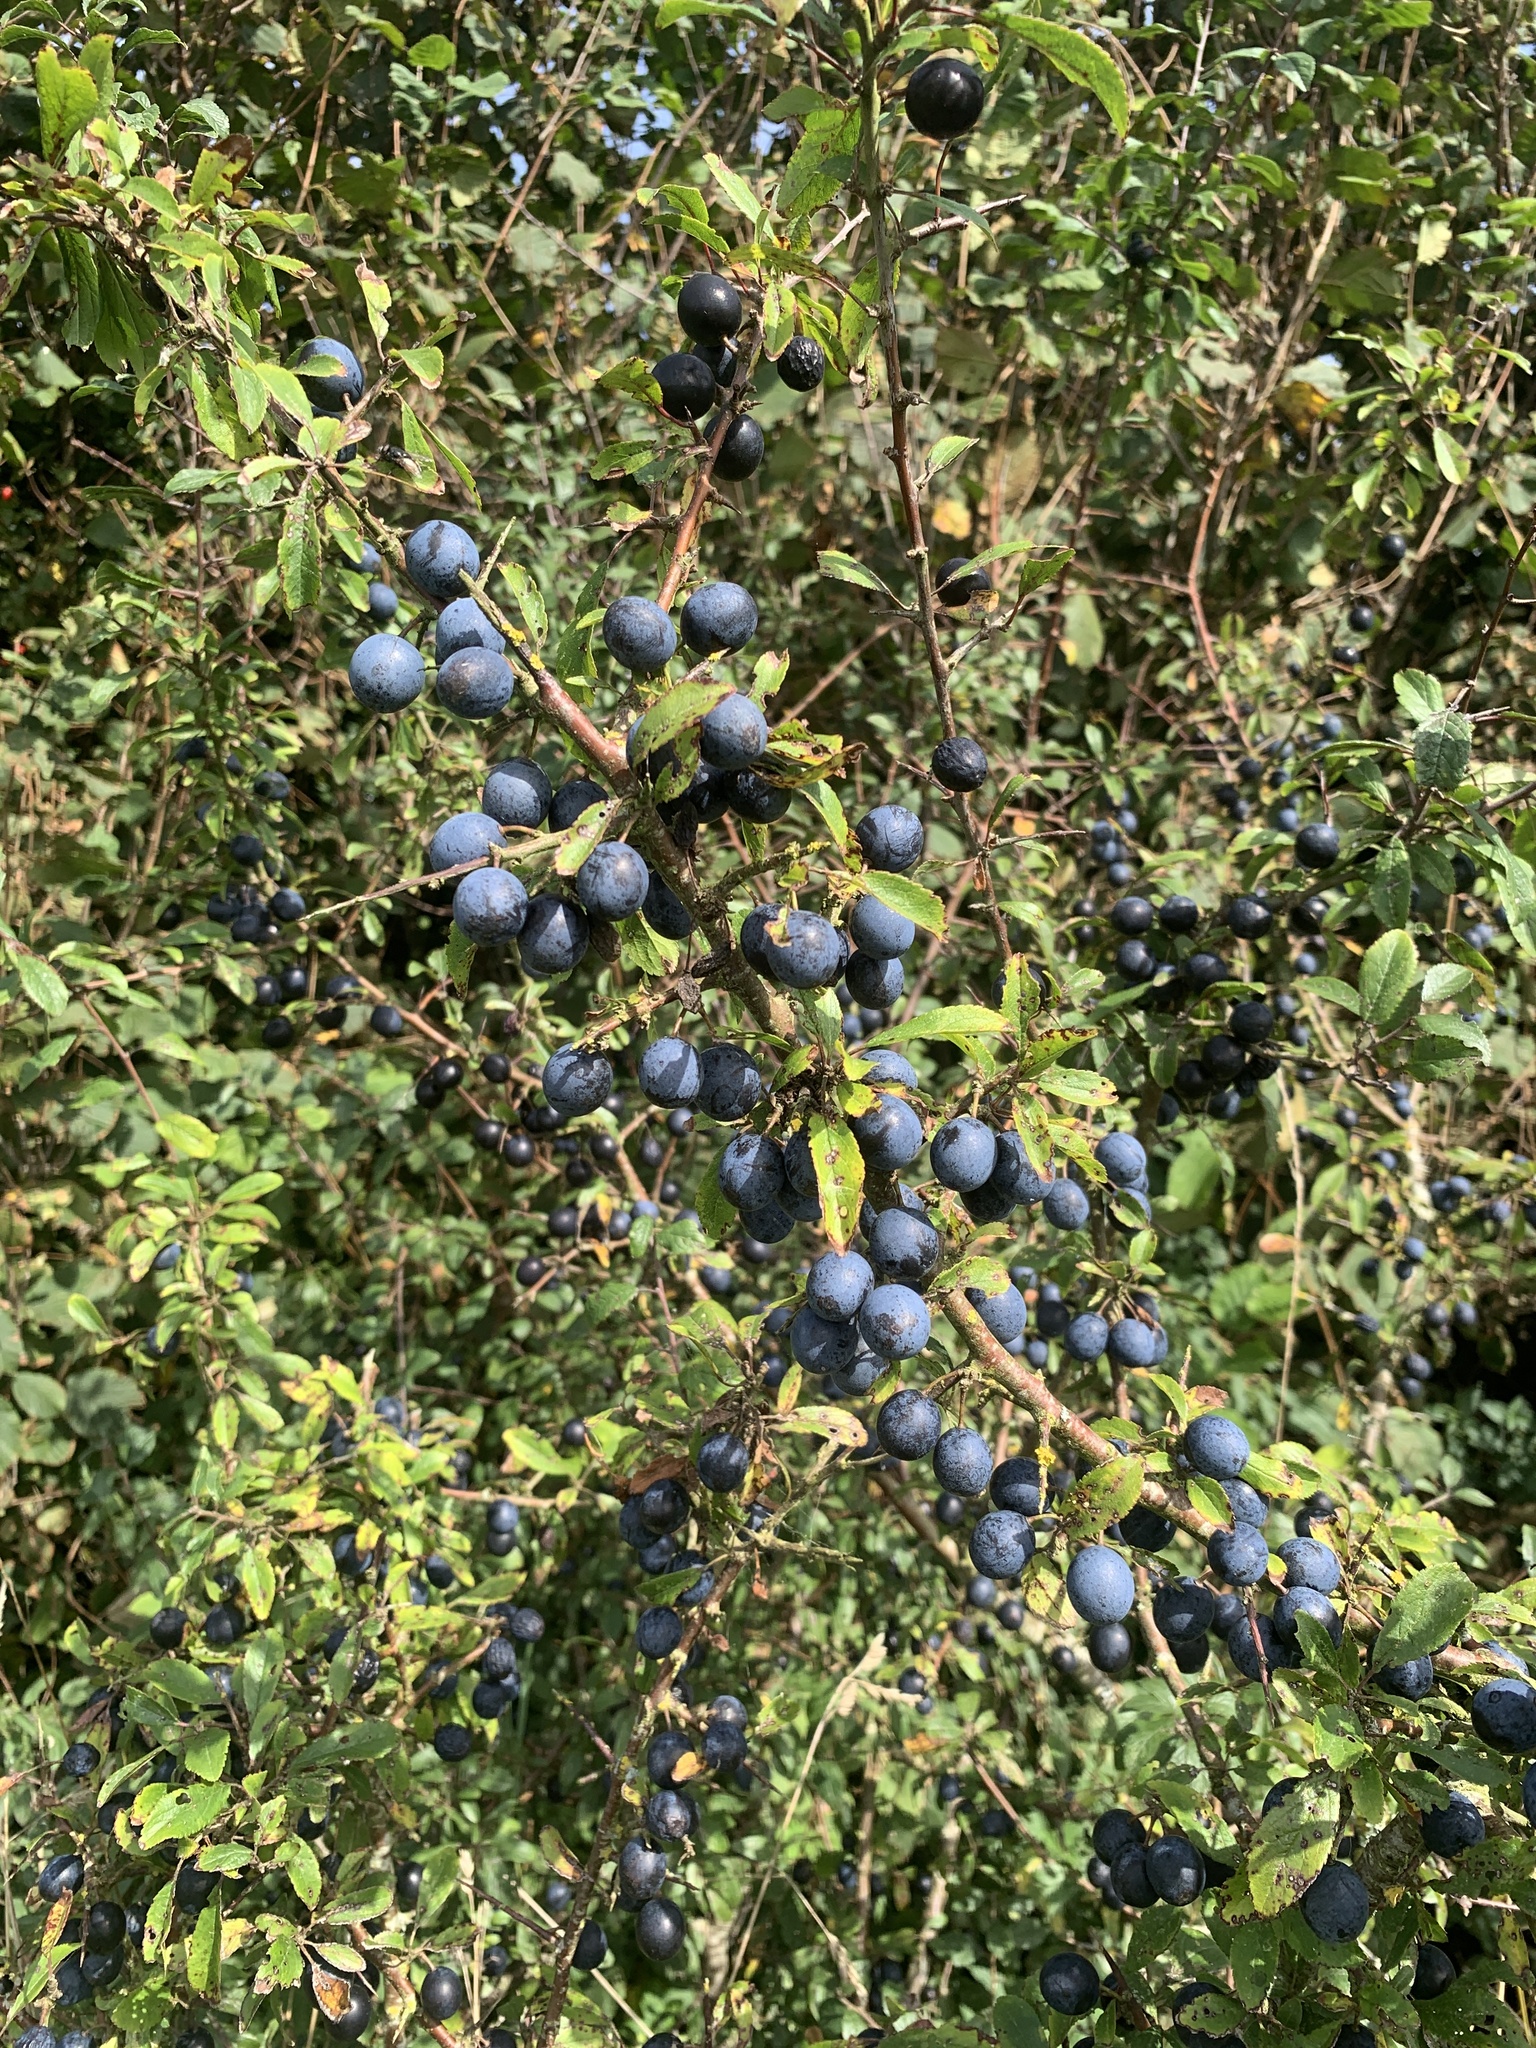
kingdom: Plantae
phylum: Tracheophyta
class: Magnoliopsida
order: Rosales
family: Rosaceae
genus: Prunus
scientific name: Prunus spinosa
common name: Blackthorn
